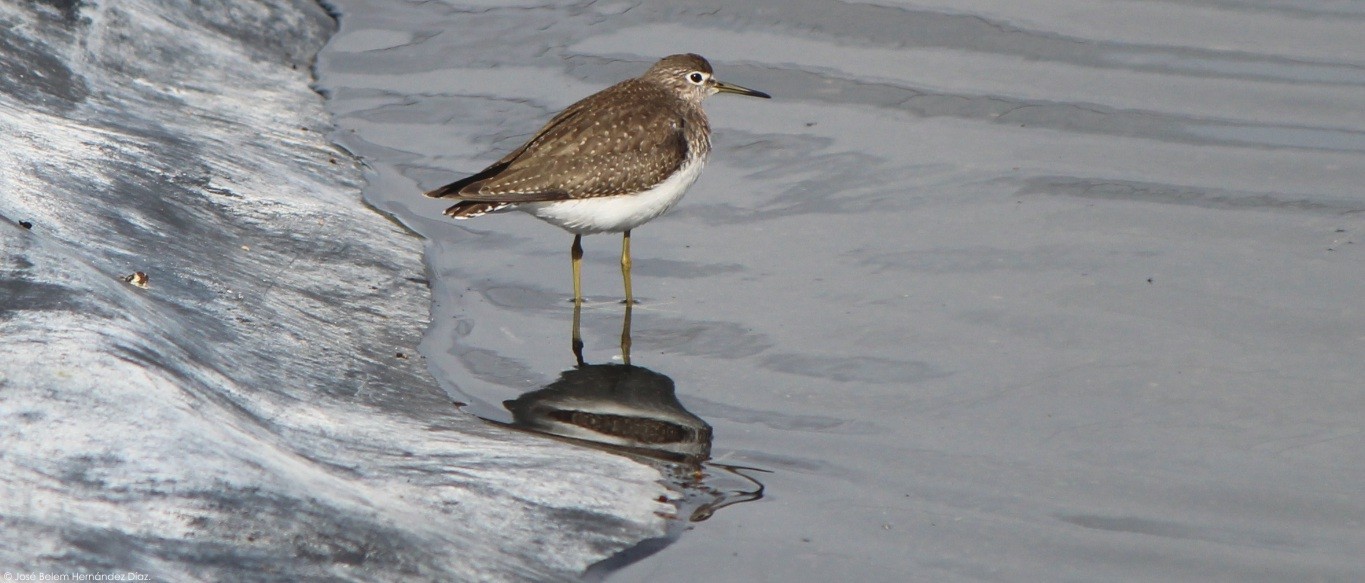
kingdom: Animalia
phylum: Chordata
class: Aves
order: Charadriiformes
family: Scolopacidae
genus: Tringa
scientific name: Tringa solitaria
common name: Solitary sandpiper
